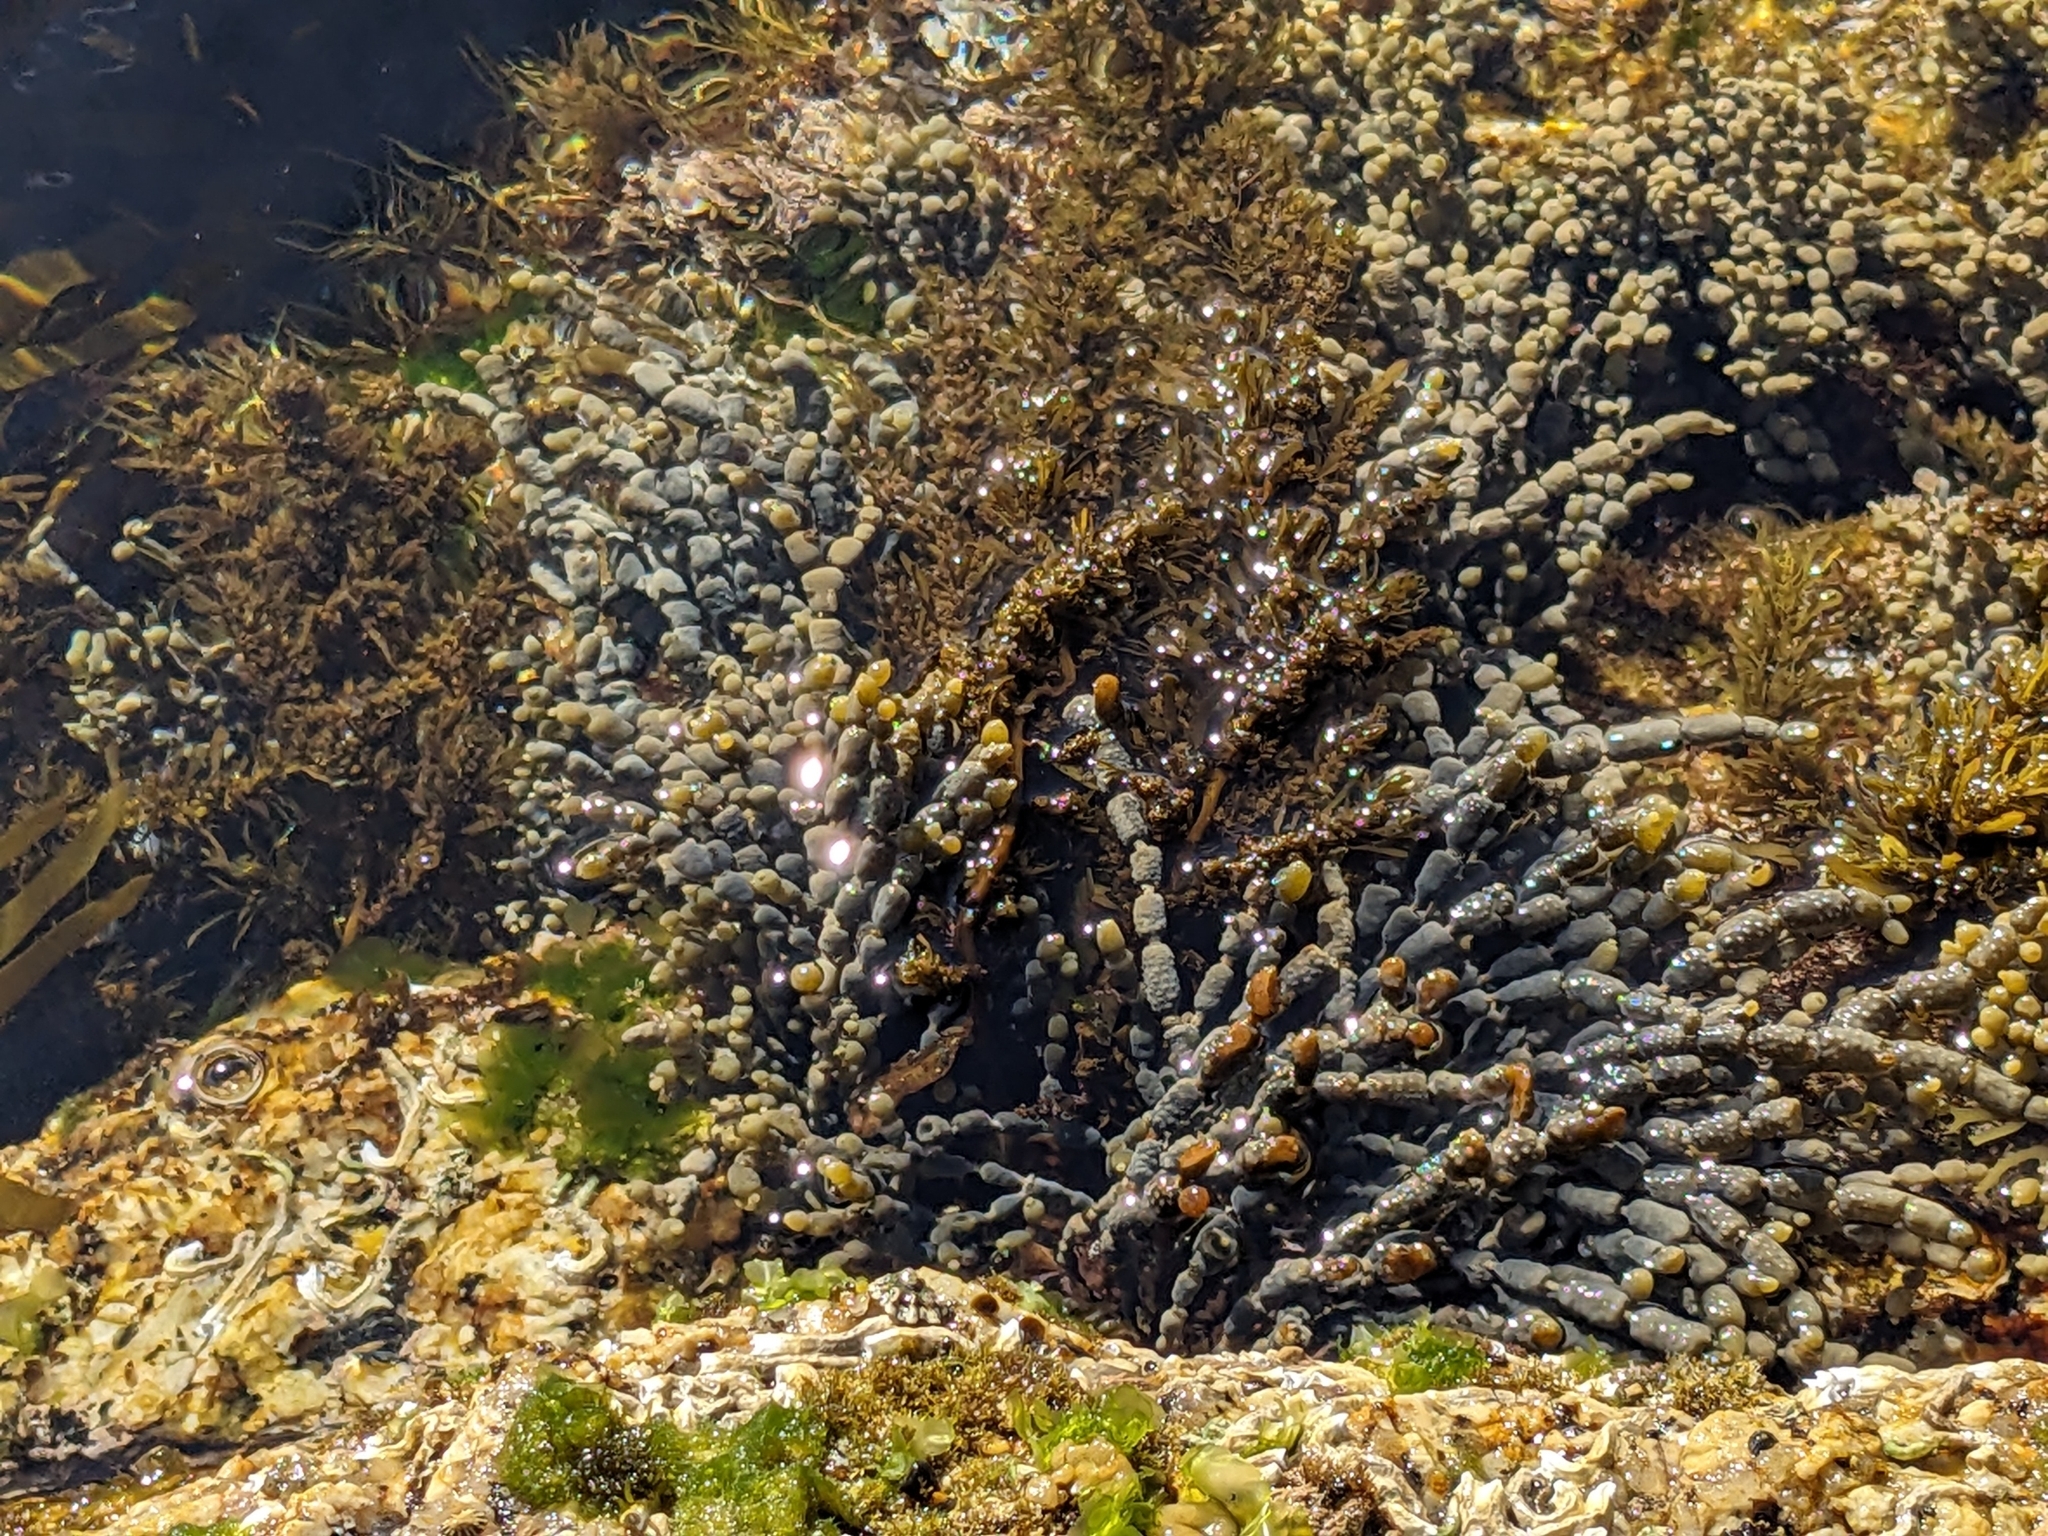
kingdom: Chromista
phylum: Ochrophyta
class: Phaeophyceae
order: Fucales
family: Hormosiraceae
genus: Hormosira
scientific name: Hormosira banksii
